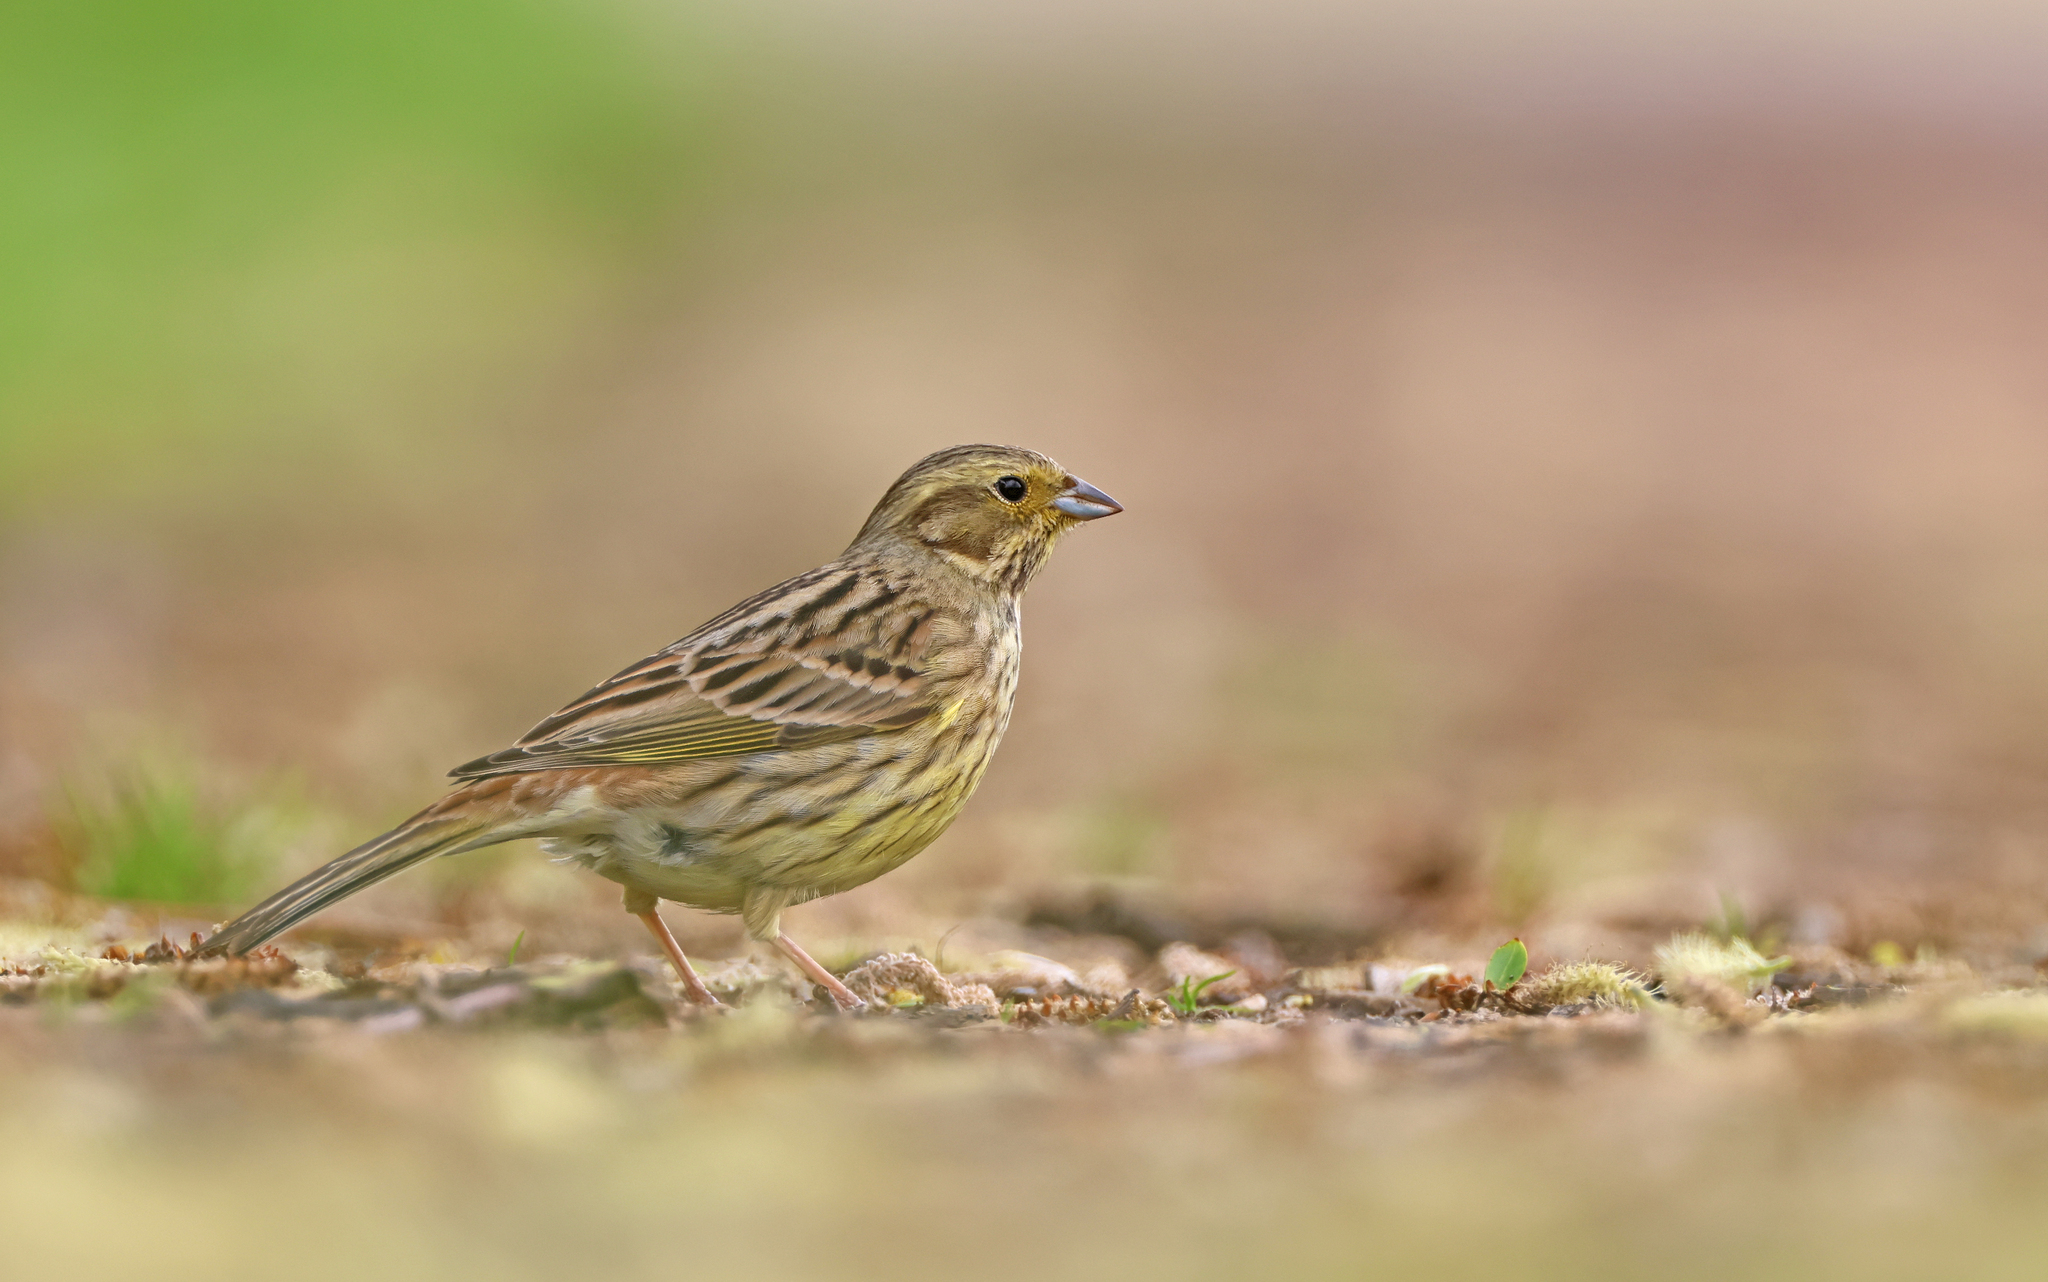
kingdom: Animalia
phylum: Chordata
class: Aves
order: Passeriformes
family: Emberizidae
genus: Emberiza
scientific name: Emberiza citrinella
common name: Yellowhammer
